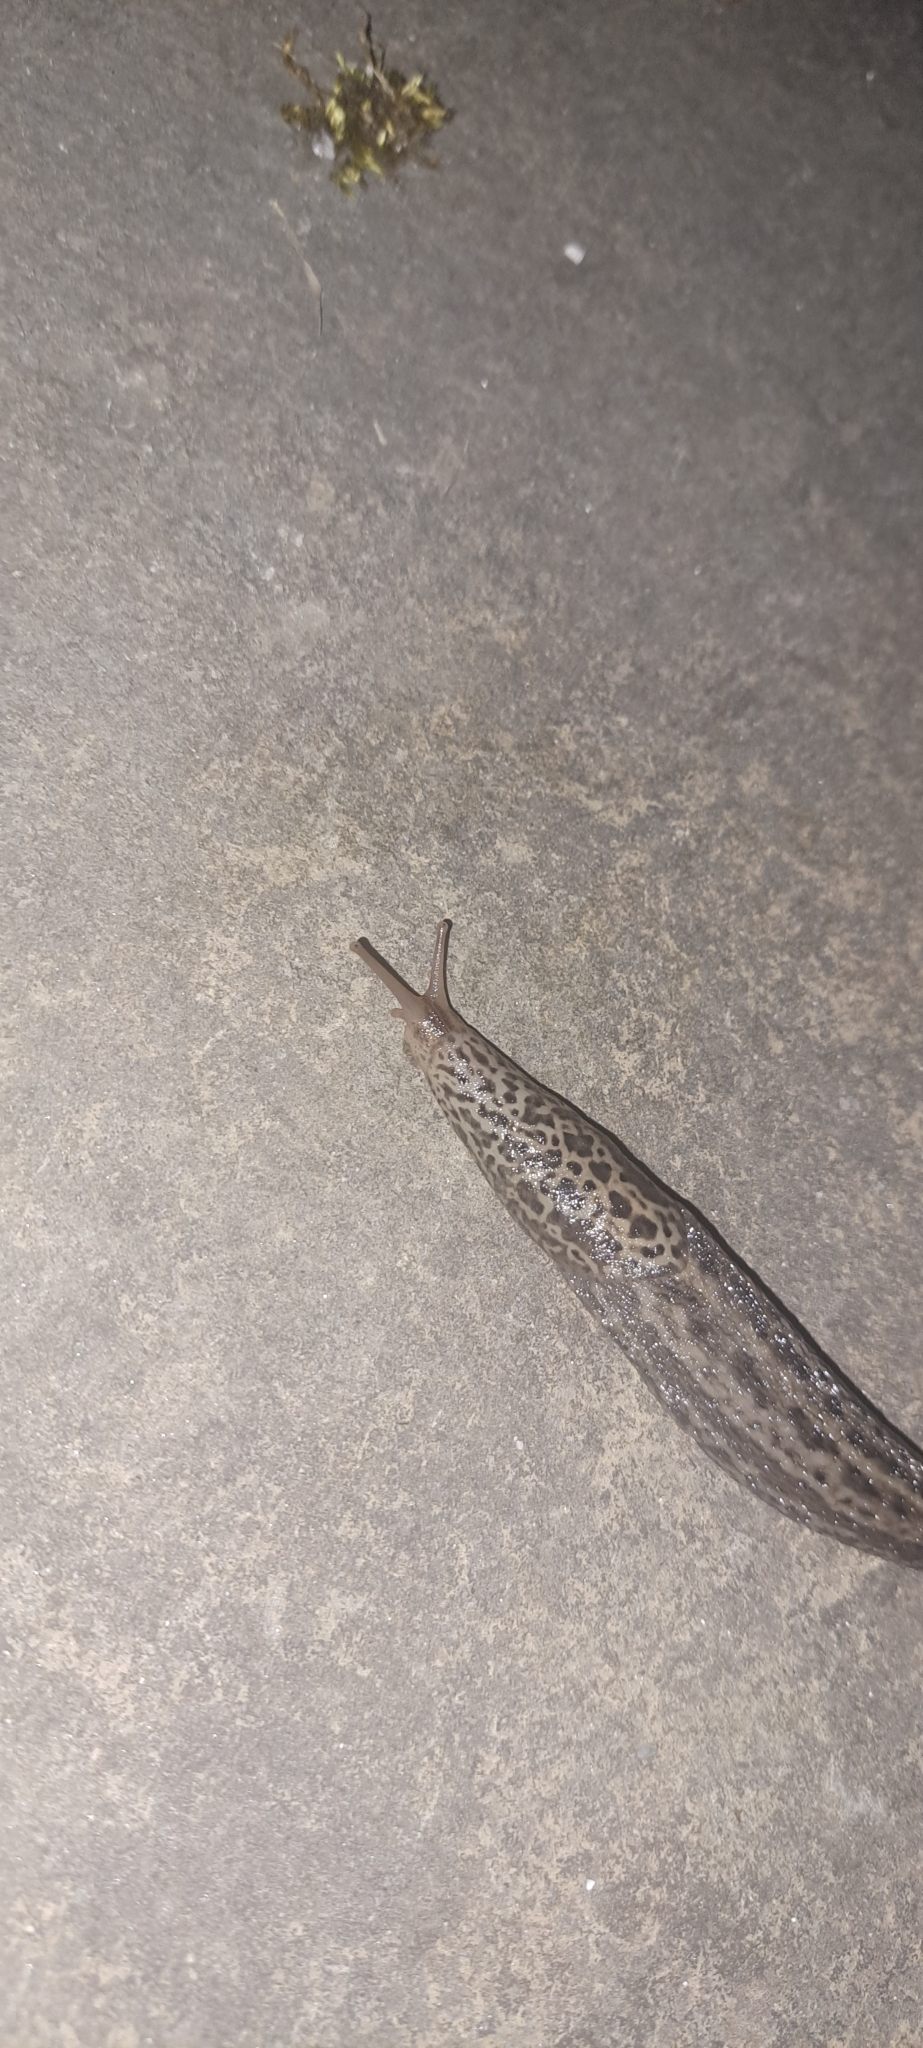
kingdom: Animalia
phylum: Mollusca
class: Gastropoda
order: Stylommatophora
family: Limacidae
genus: Limax
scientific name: Limax maximus
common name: Great grey slug
